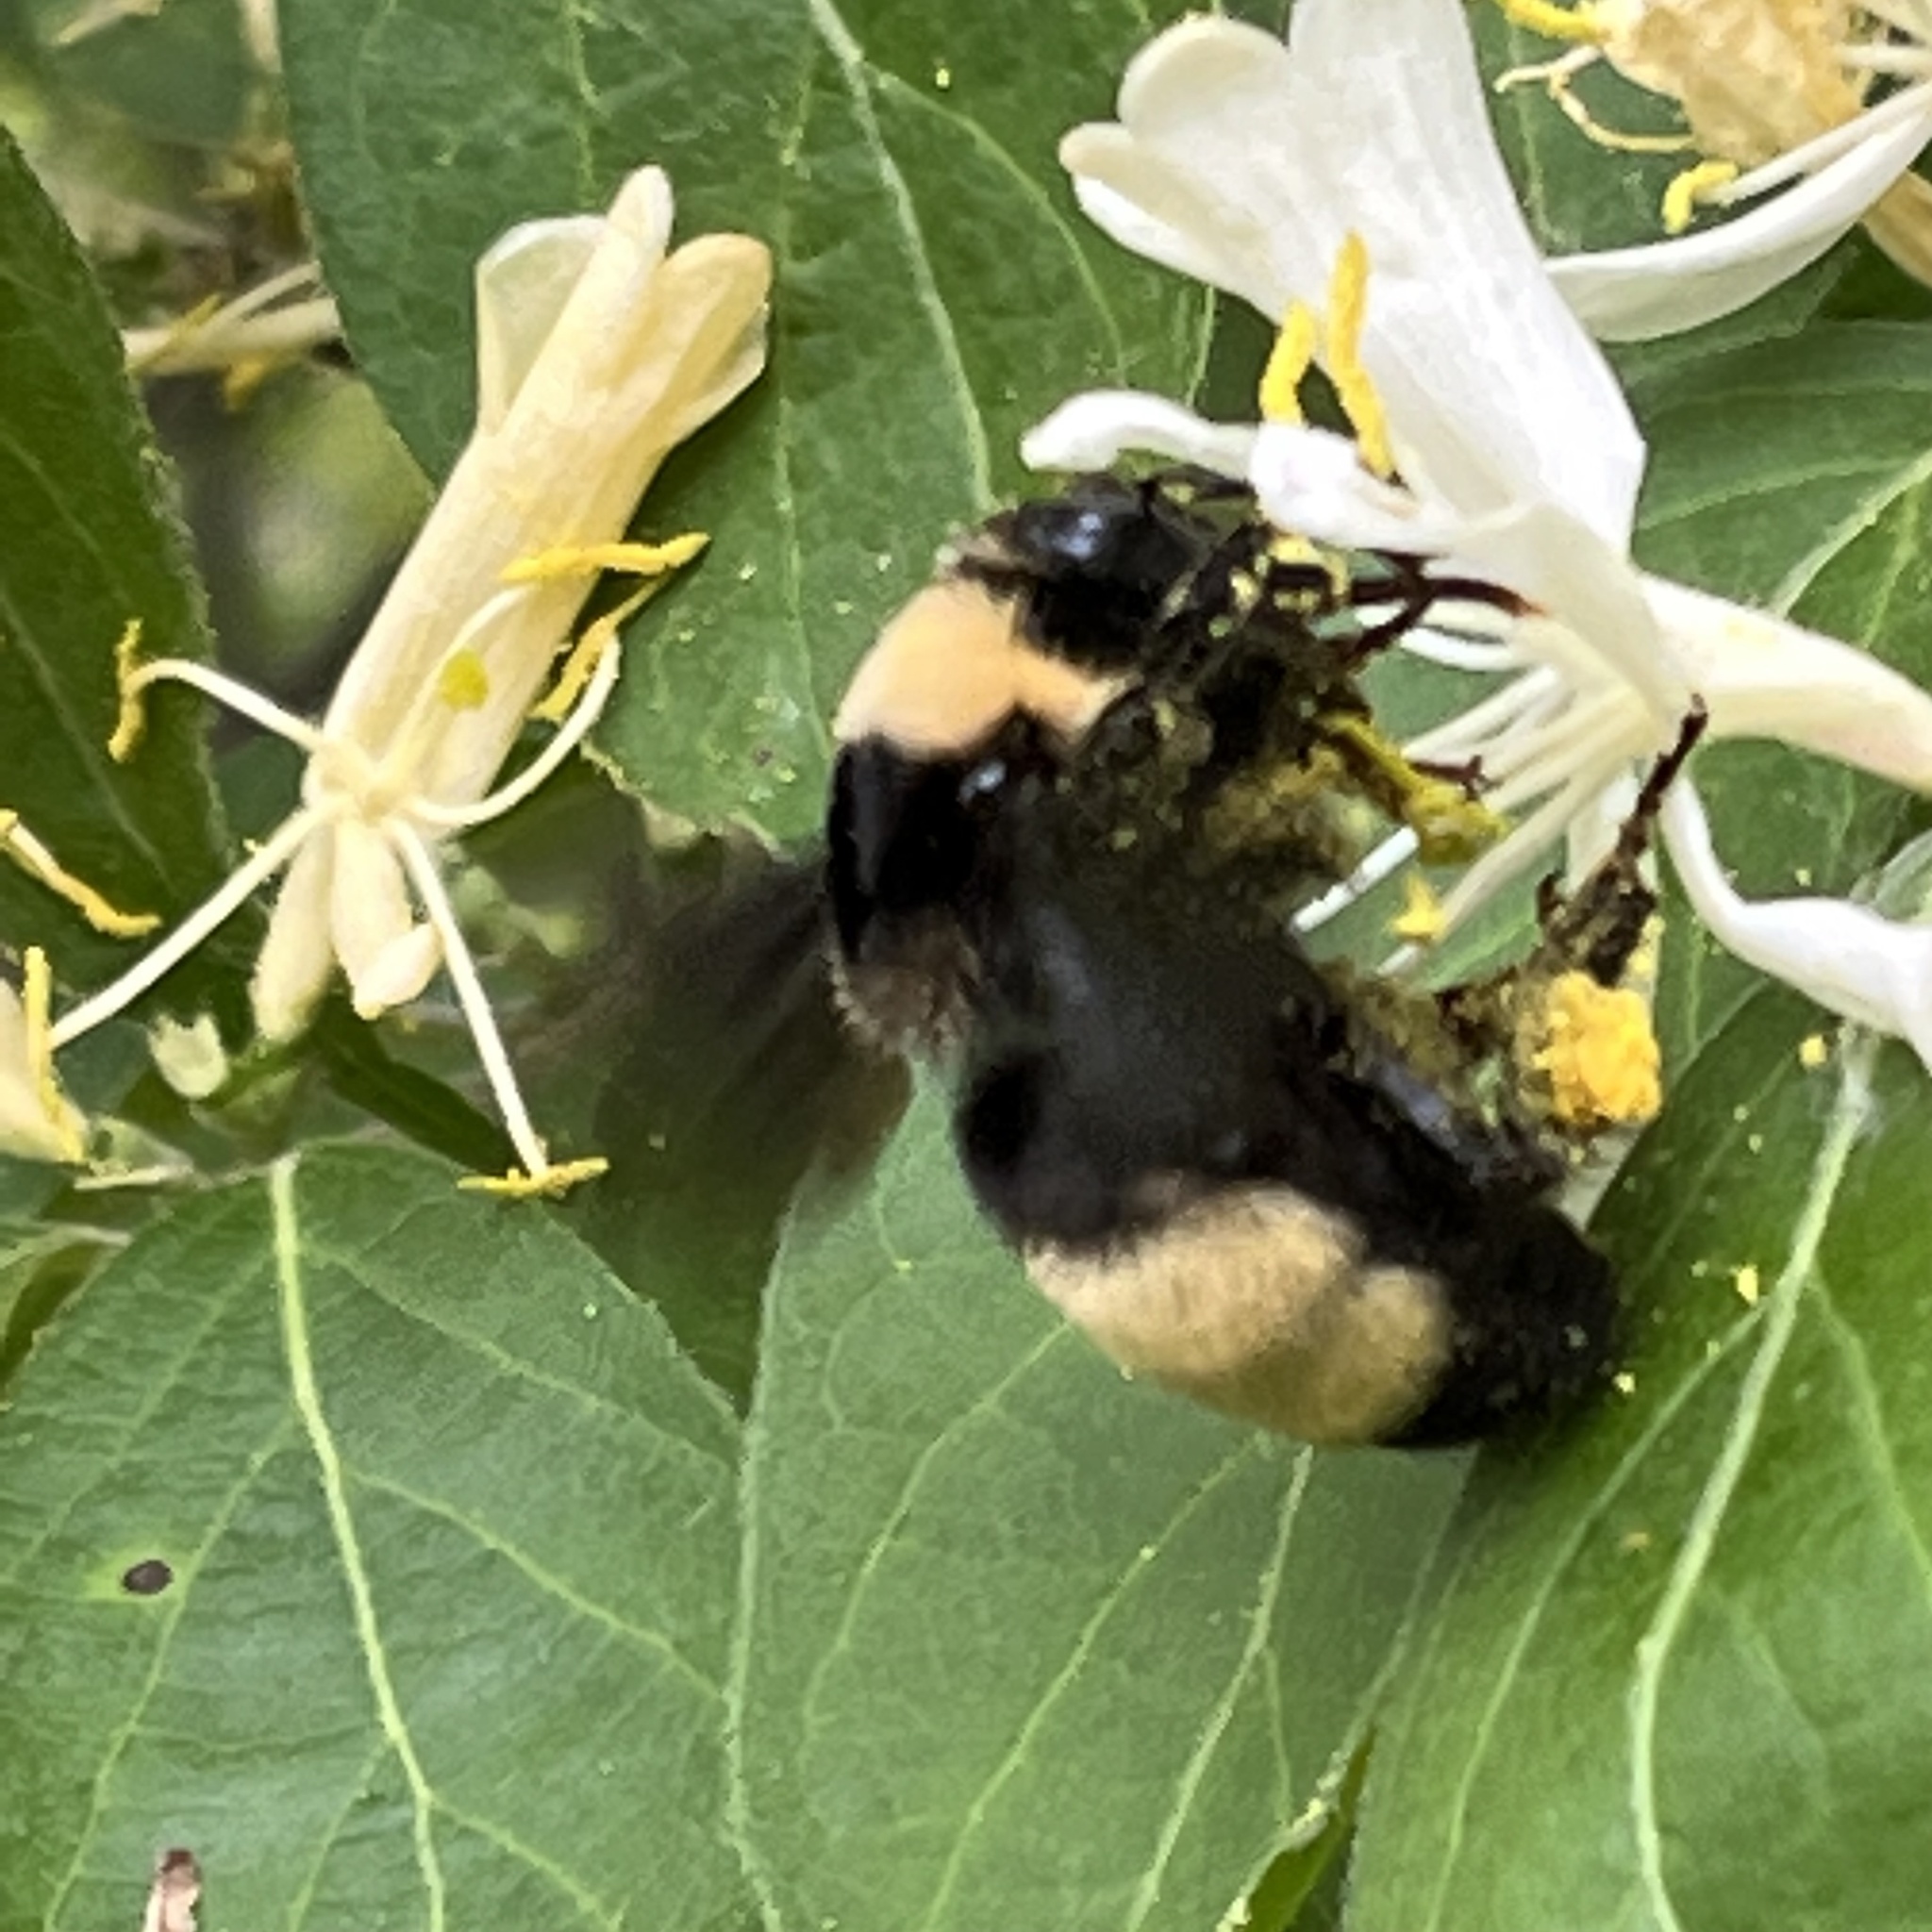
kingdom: Animalia
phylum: Arthropoda
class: Insecta
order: Hymenoptera
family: Apidae
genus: Bombus
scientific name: Bombus auricomus
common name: Black and gold bumble bee
